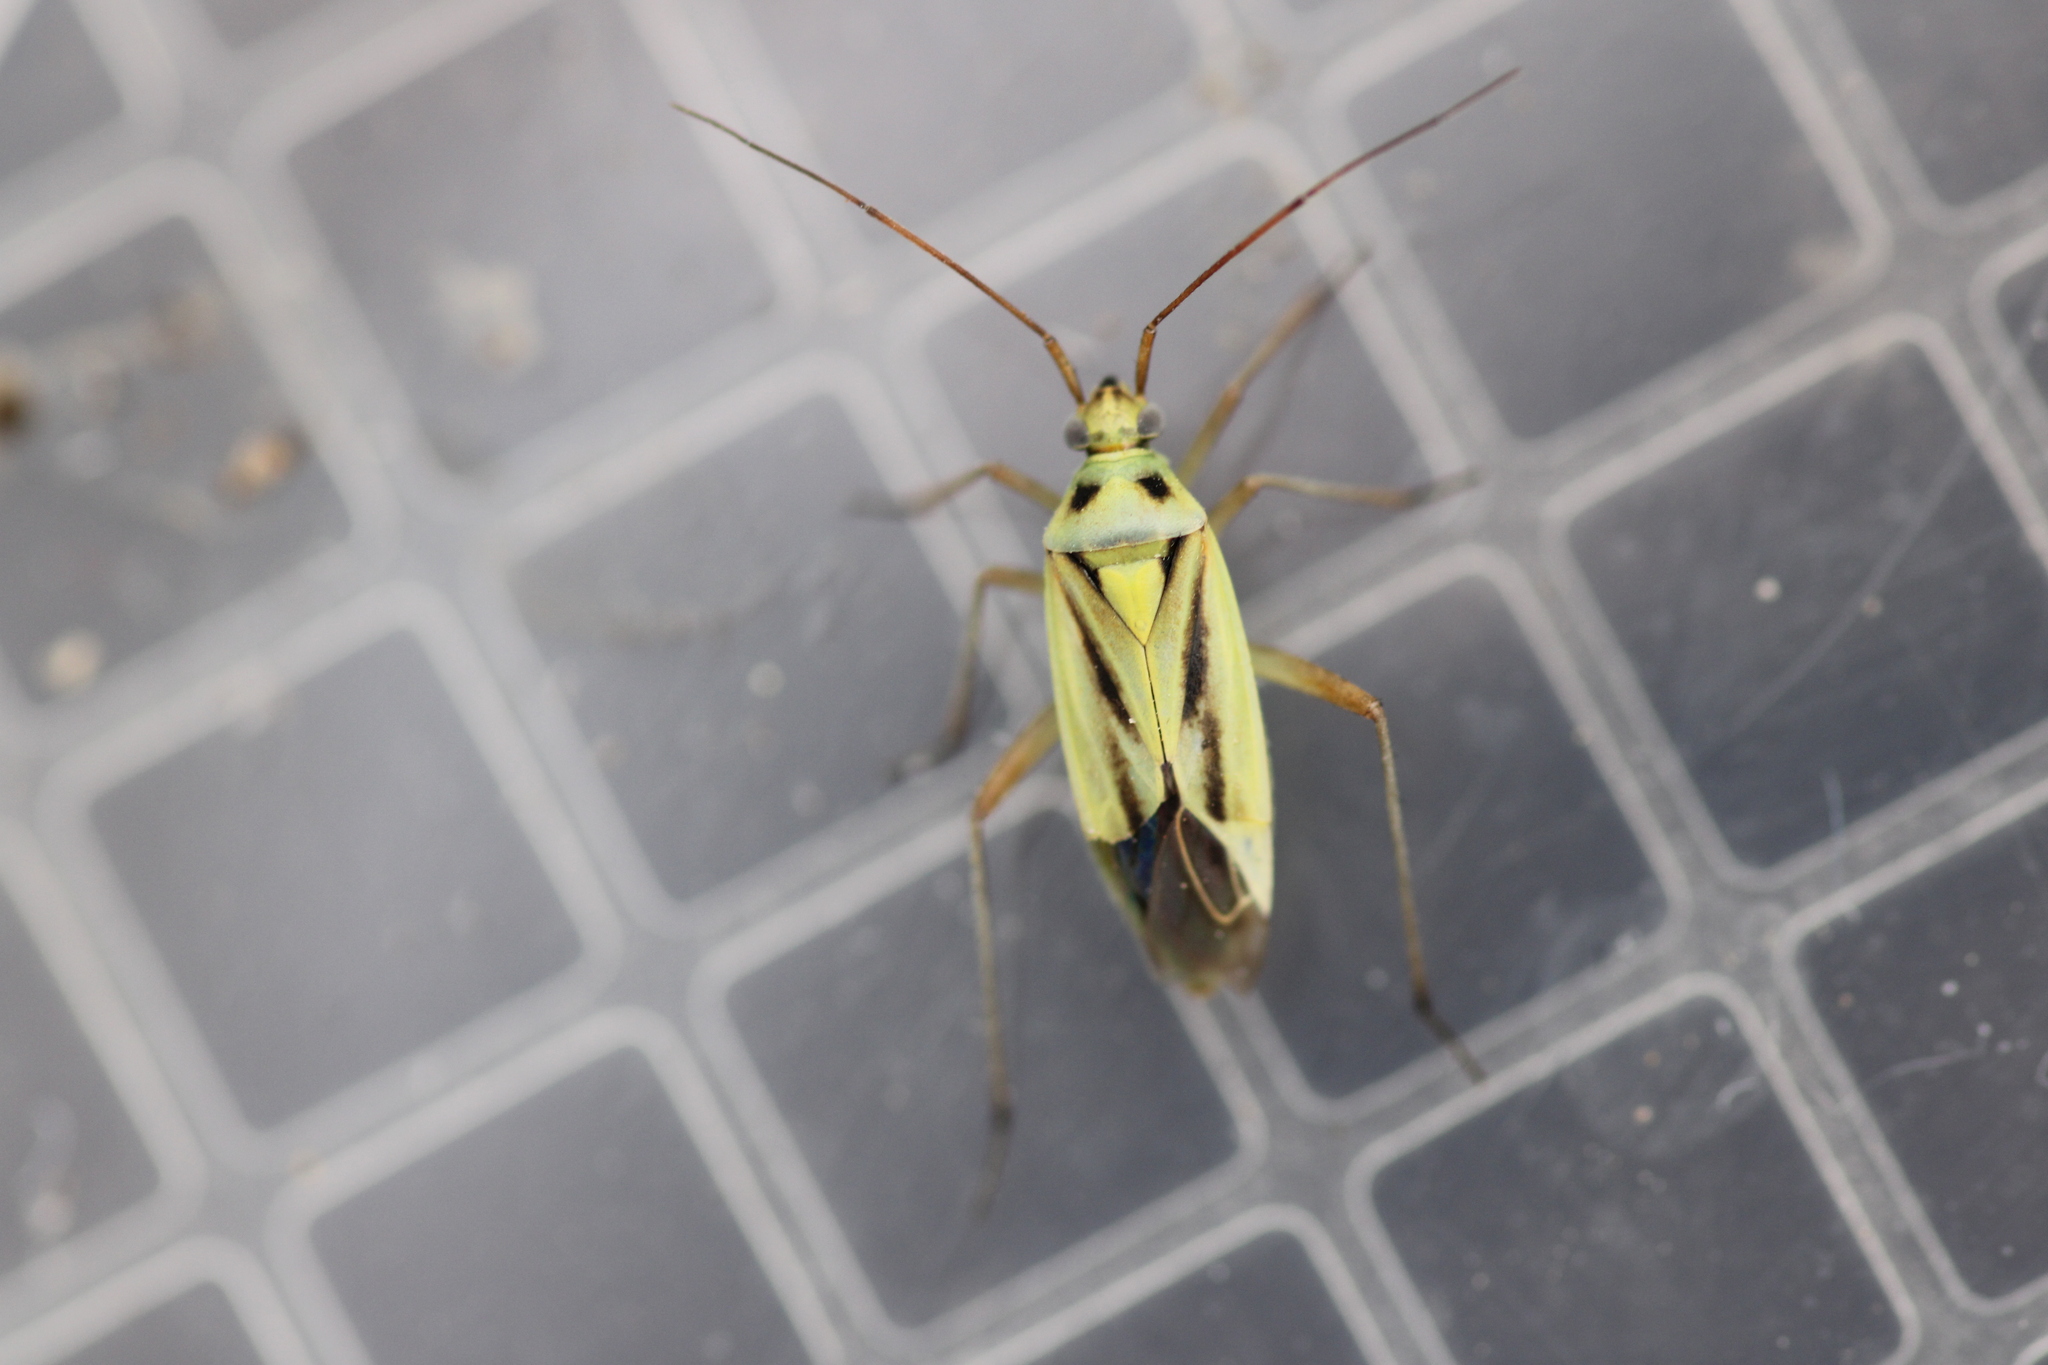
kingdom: Animalia
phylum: Arthropoda
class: Insecta
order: Hemiptera
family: Miridae
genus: Stenotus
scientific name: Stenotus binotatus
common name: Plant bug
